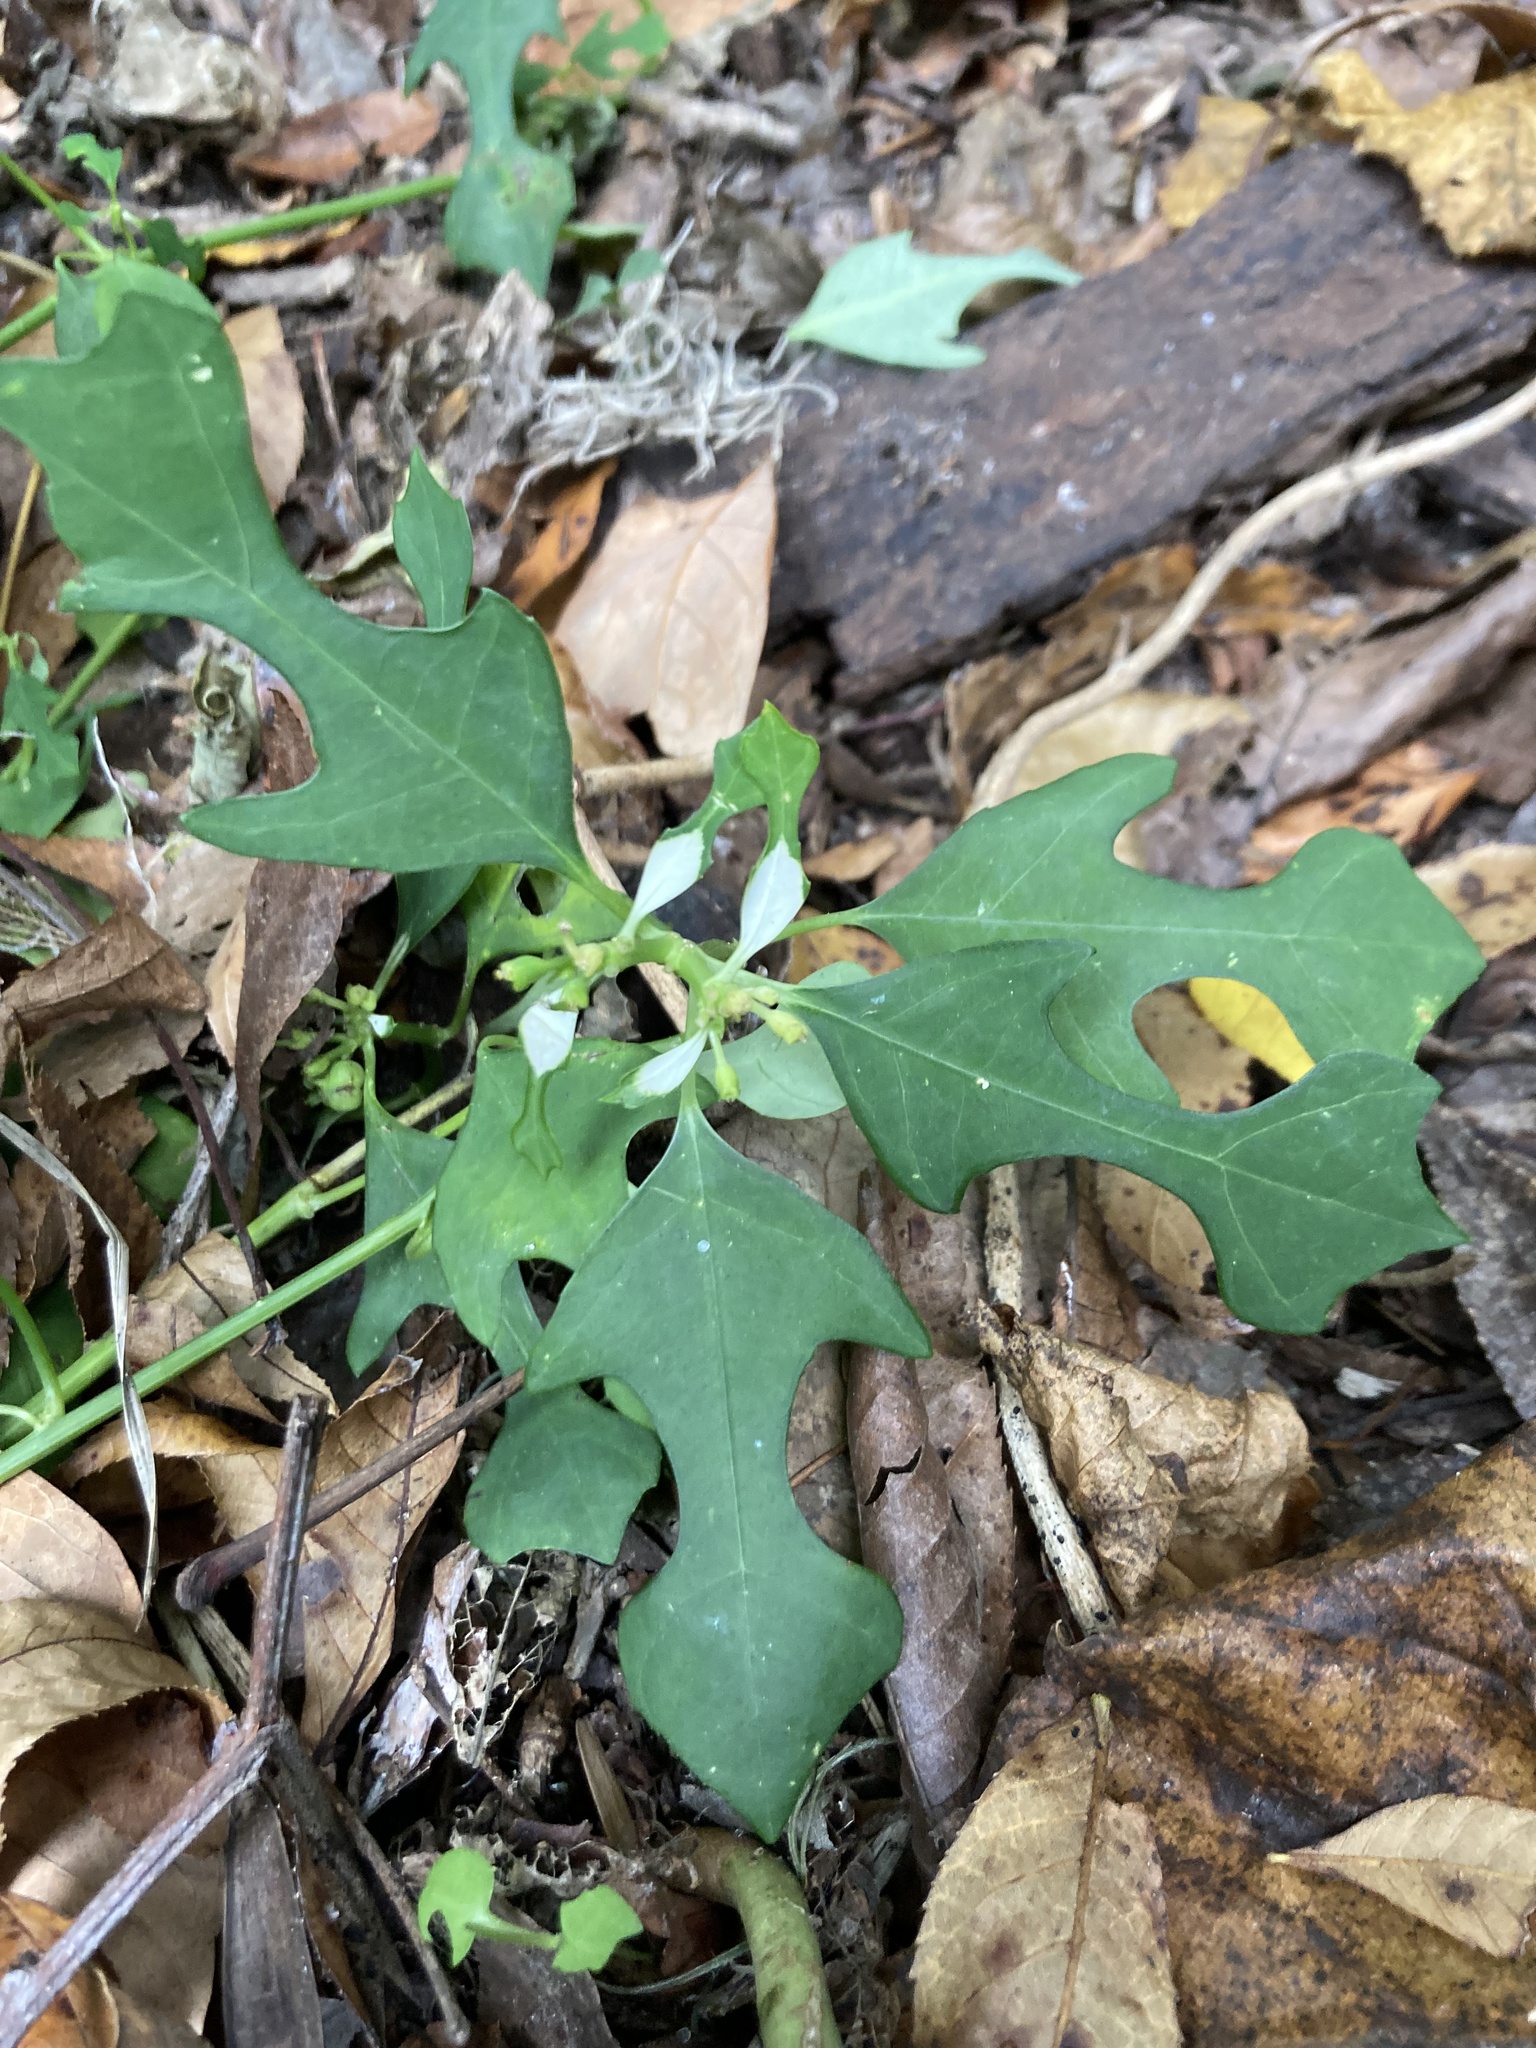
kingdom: Plantae
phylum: Tracheophyta
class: Magnoliopsida
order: Malpighiales
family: Euphorbiaceae
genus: Euphorbia
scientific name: Euphorbia heterophylla
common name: Mexican fireplant
